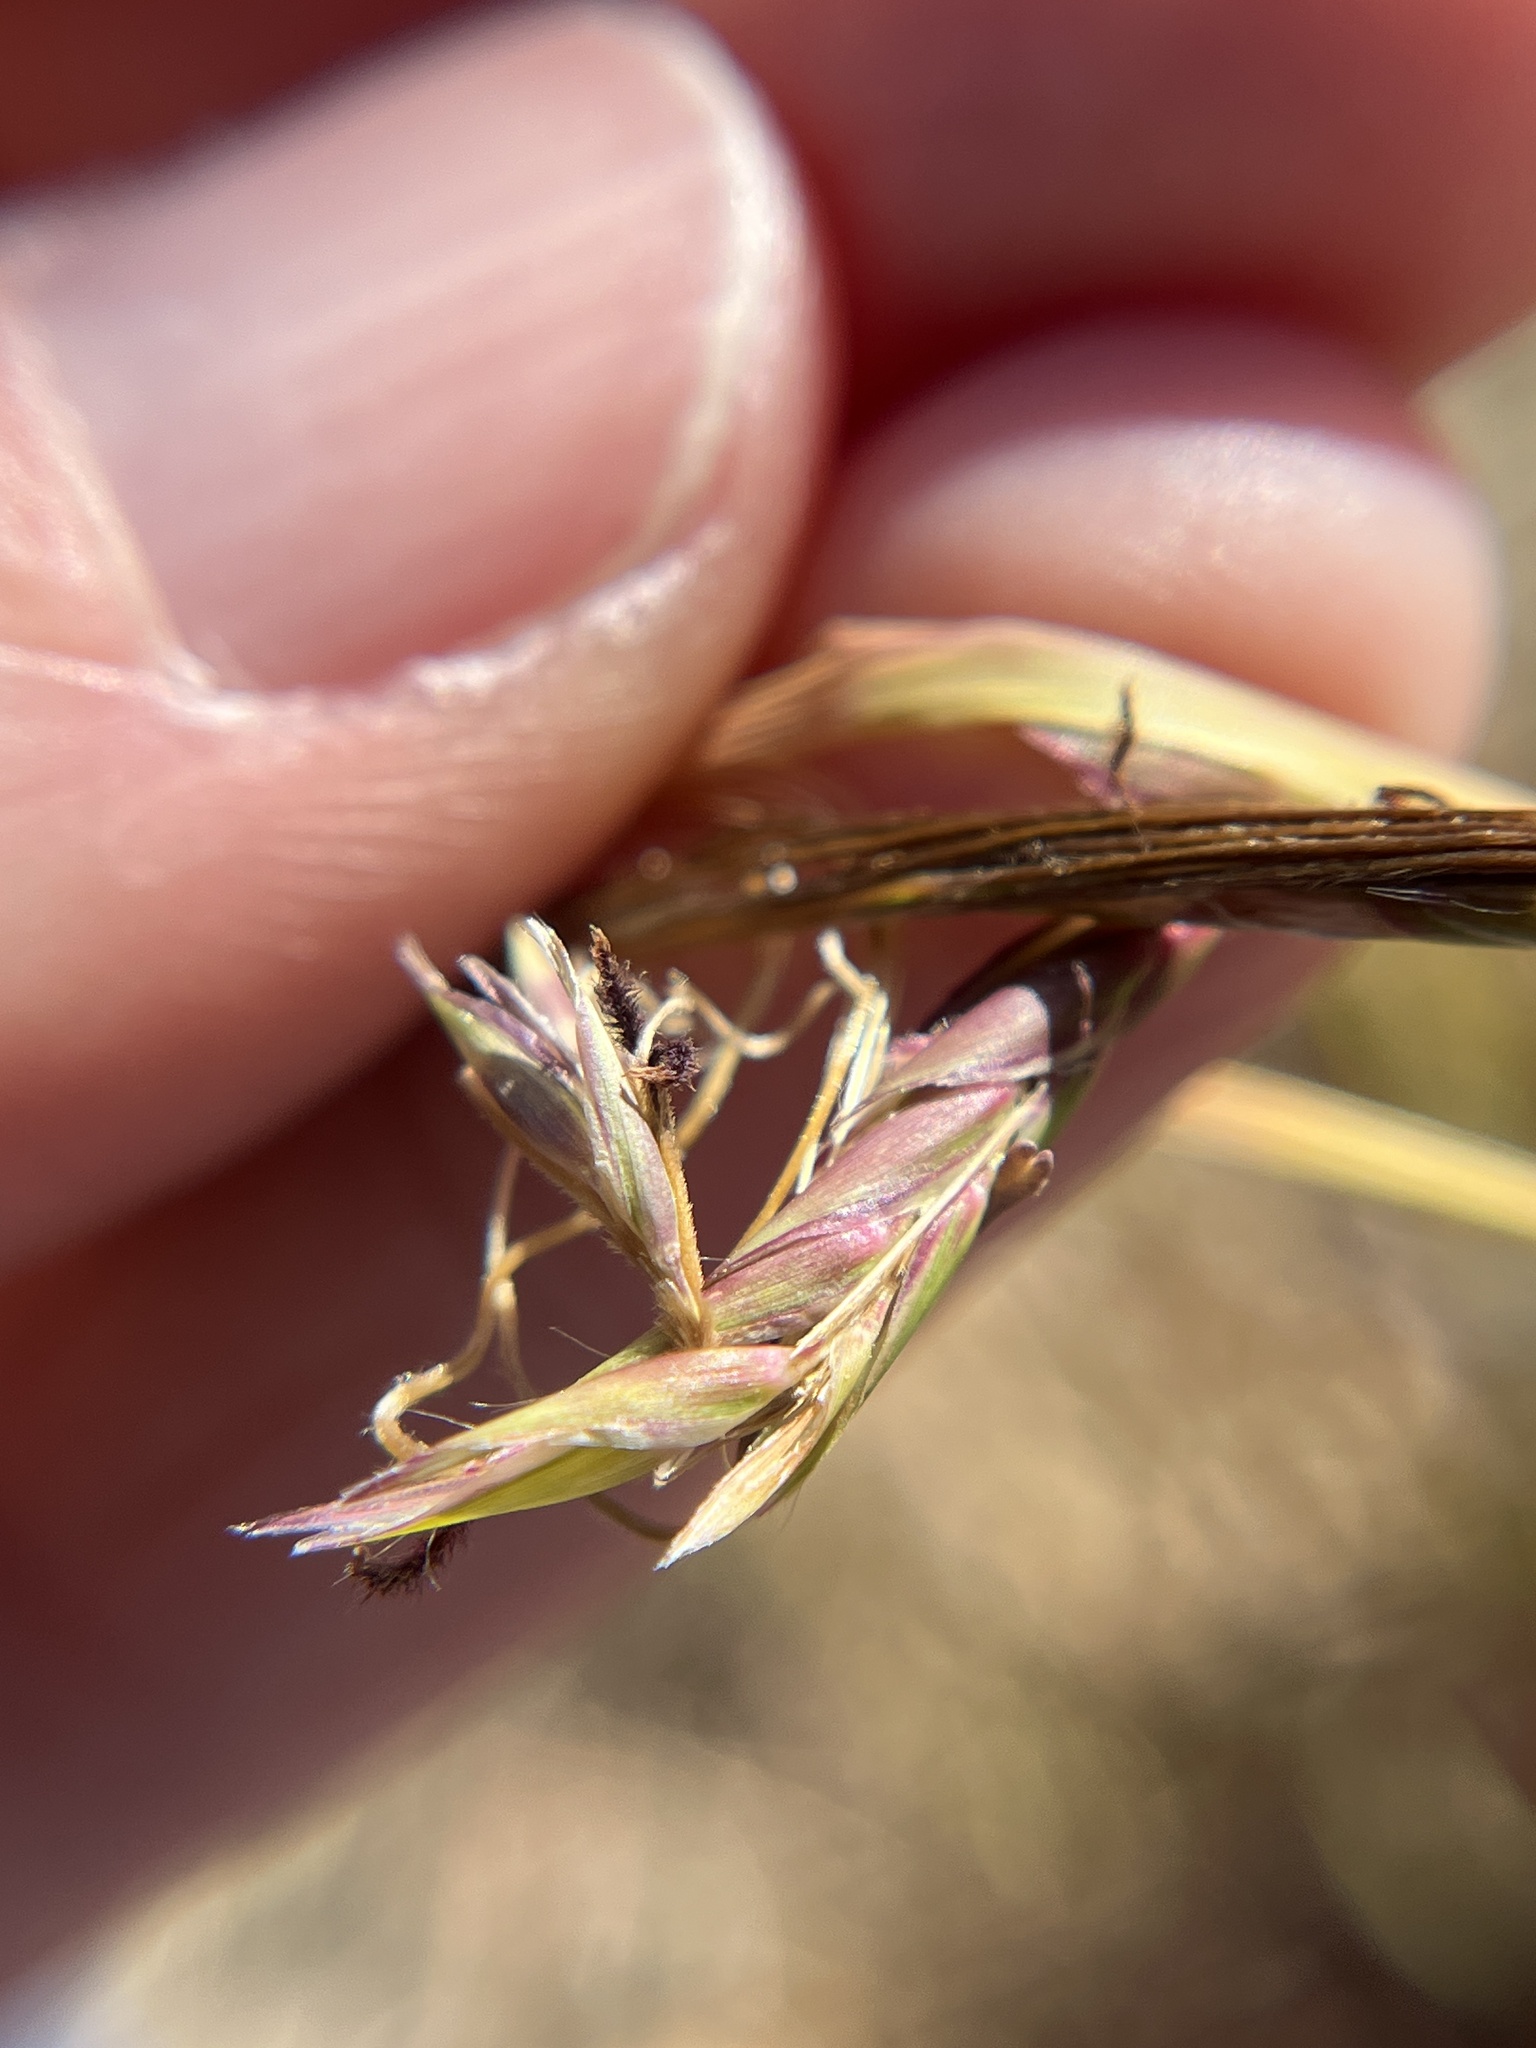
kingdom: Plantae
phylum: Tracheophyta
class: Liliopsida
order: Poales
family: Poaceae
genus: Heteropogon
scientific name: Heteropogon contortus
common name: Tanglehead
